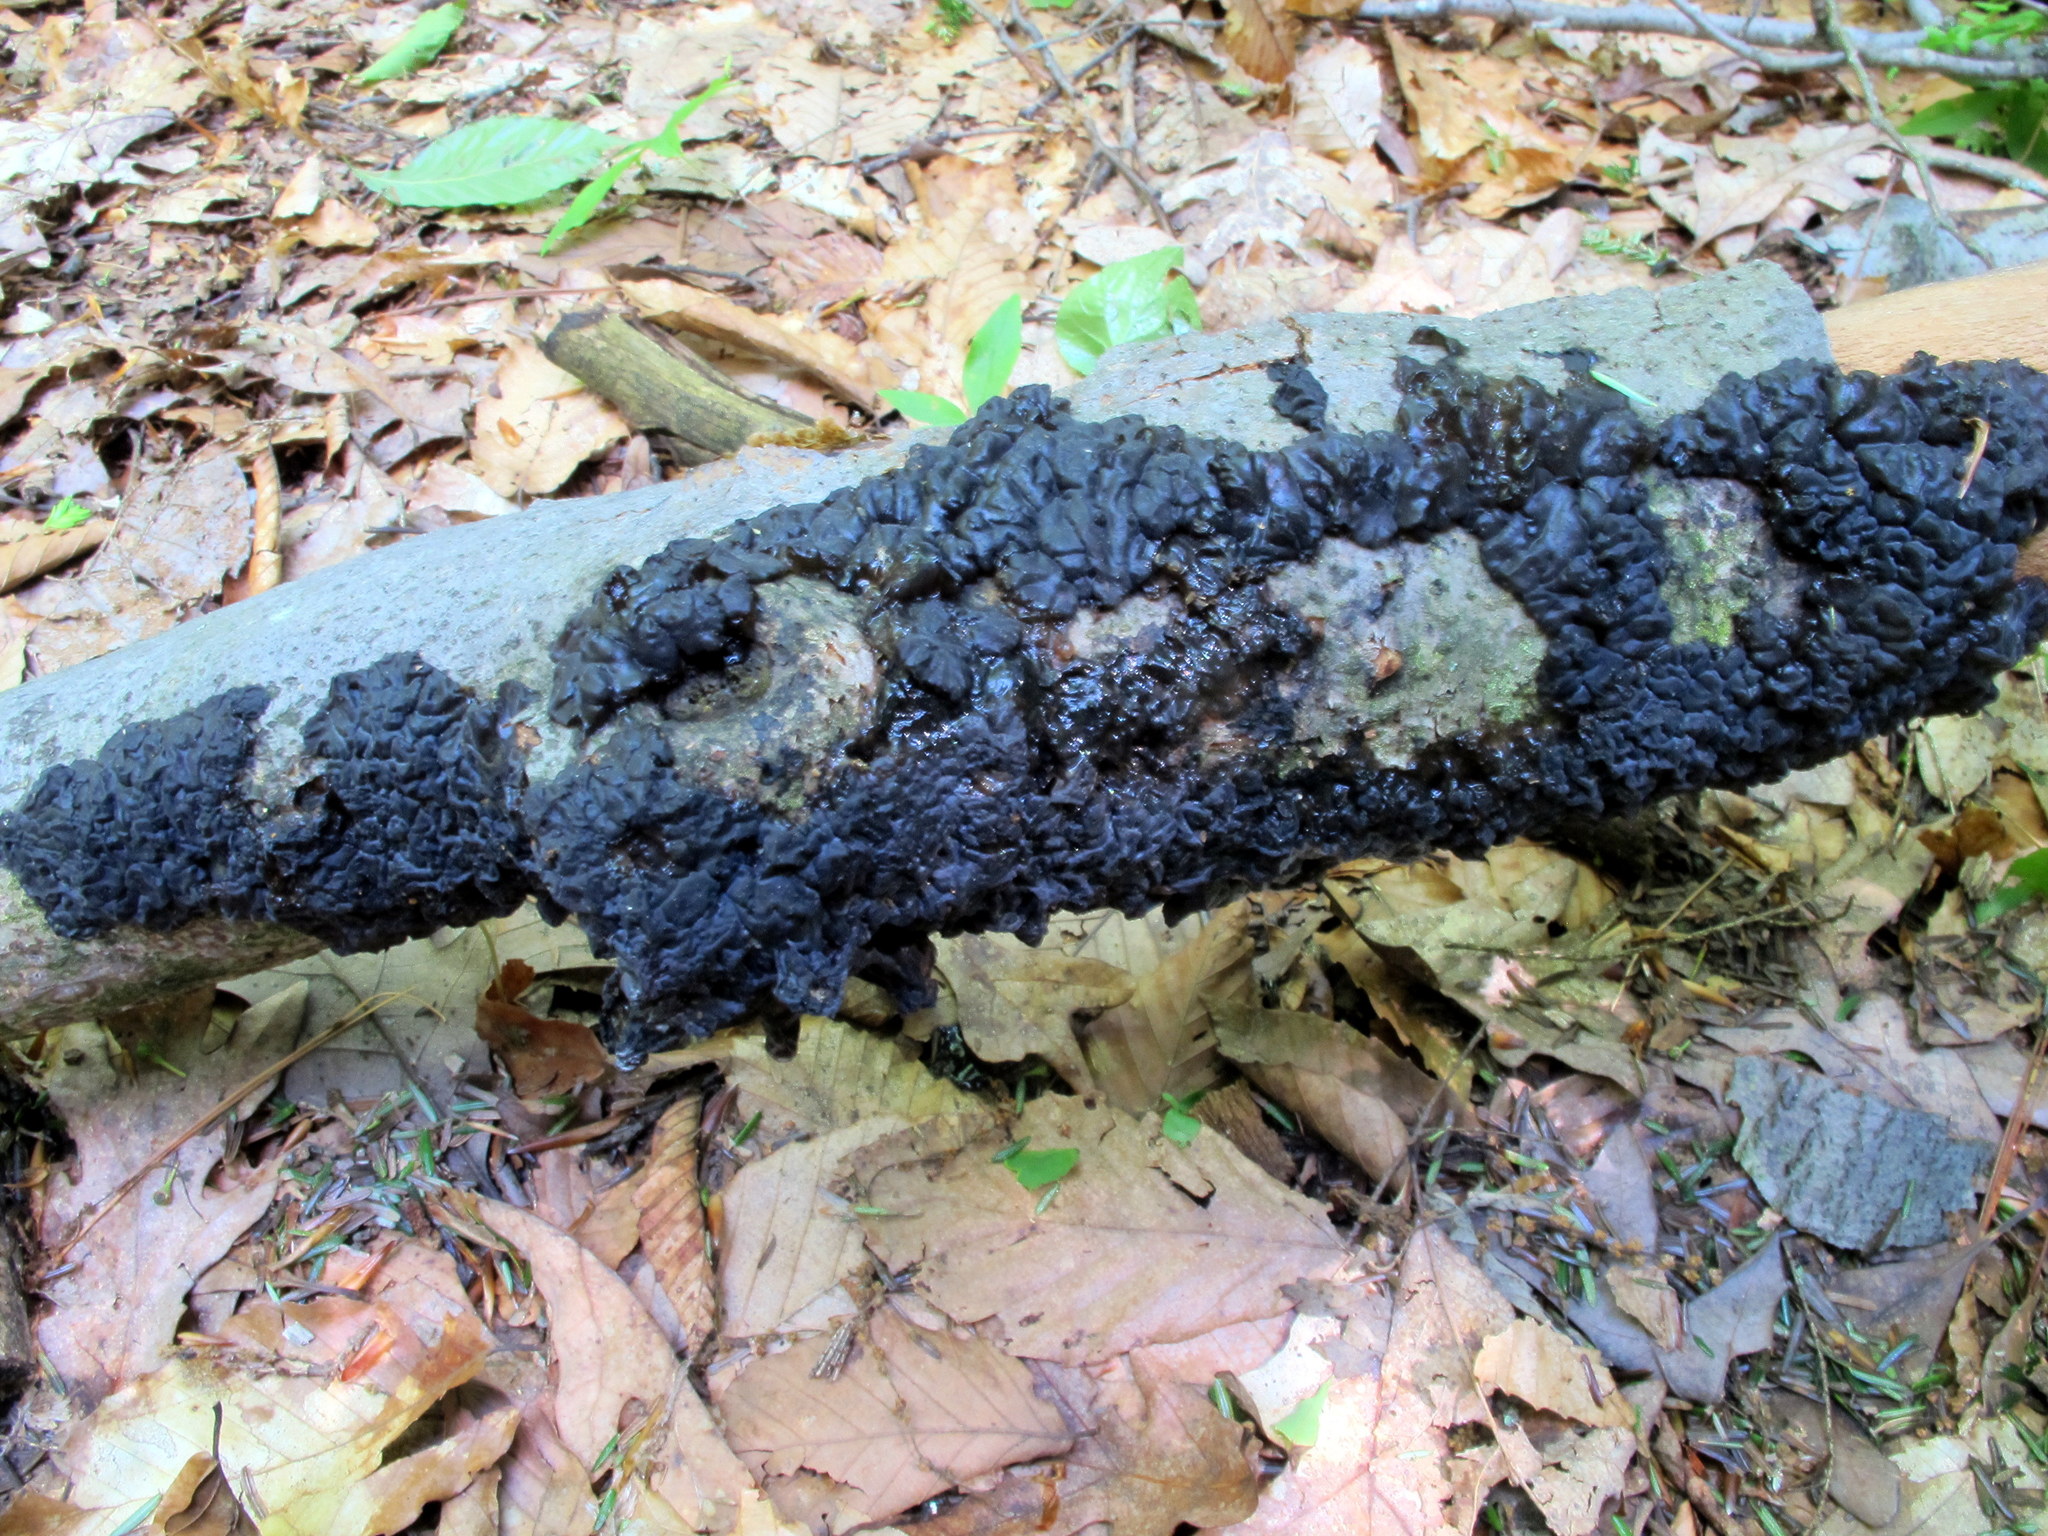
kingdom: Fungi
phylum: Basidiomycota
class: Agaricomycetes
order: Auriculariales
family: Auriculariaceae
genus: Exidia
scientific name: Exidia glandulosa
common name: Witches' butter
